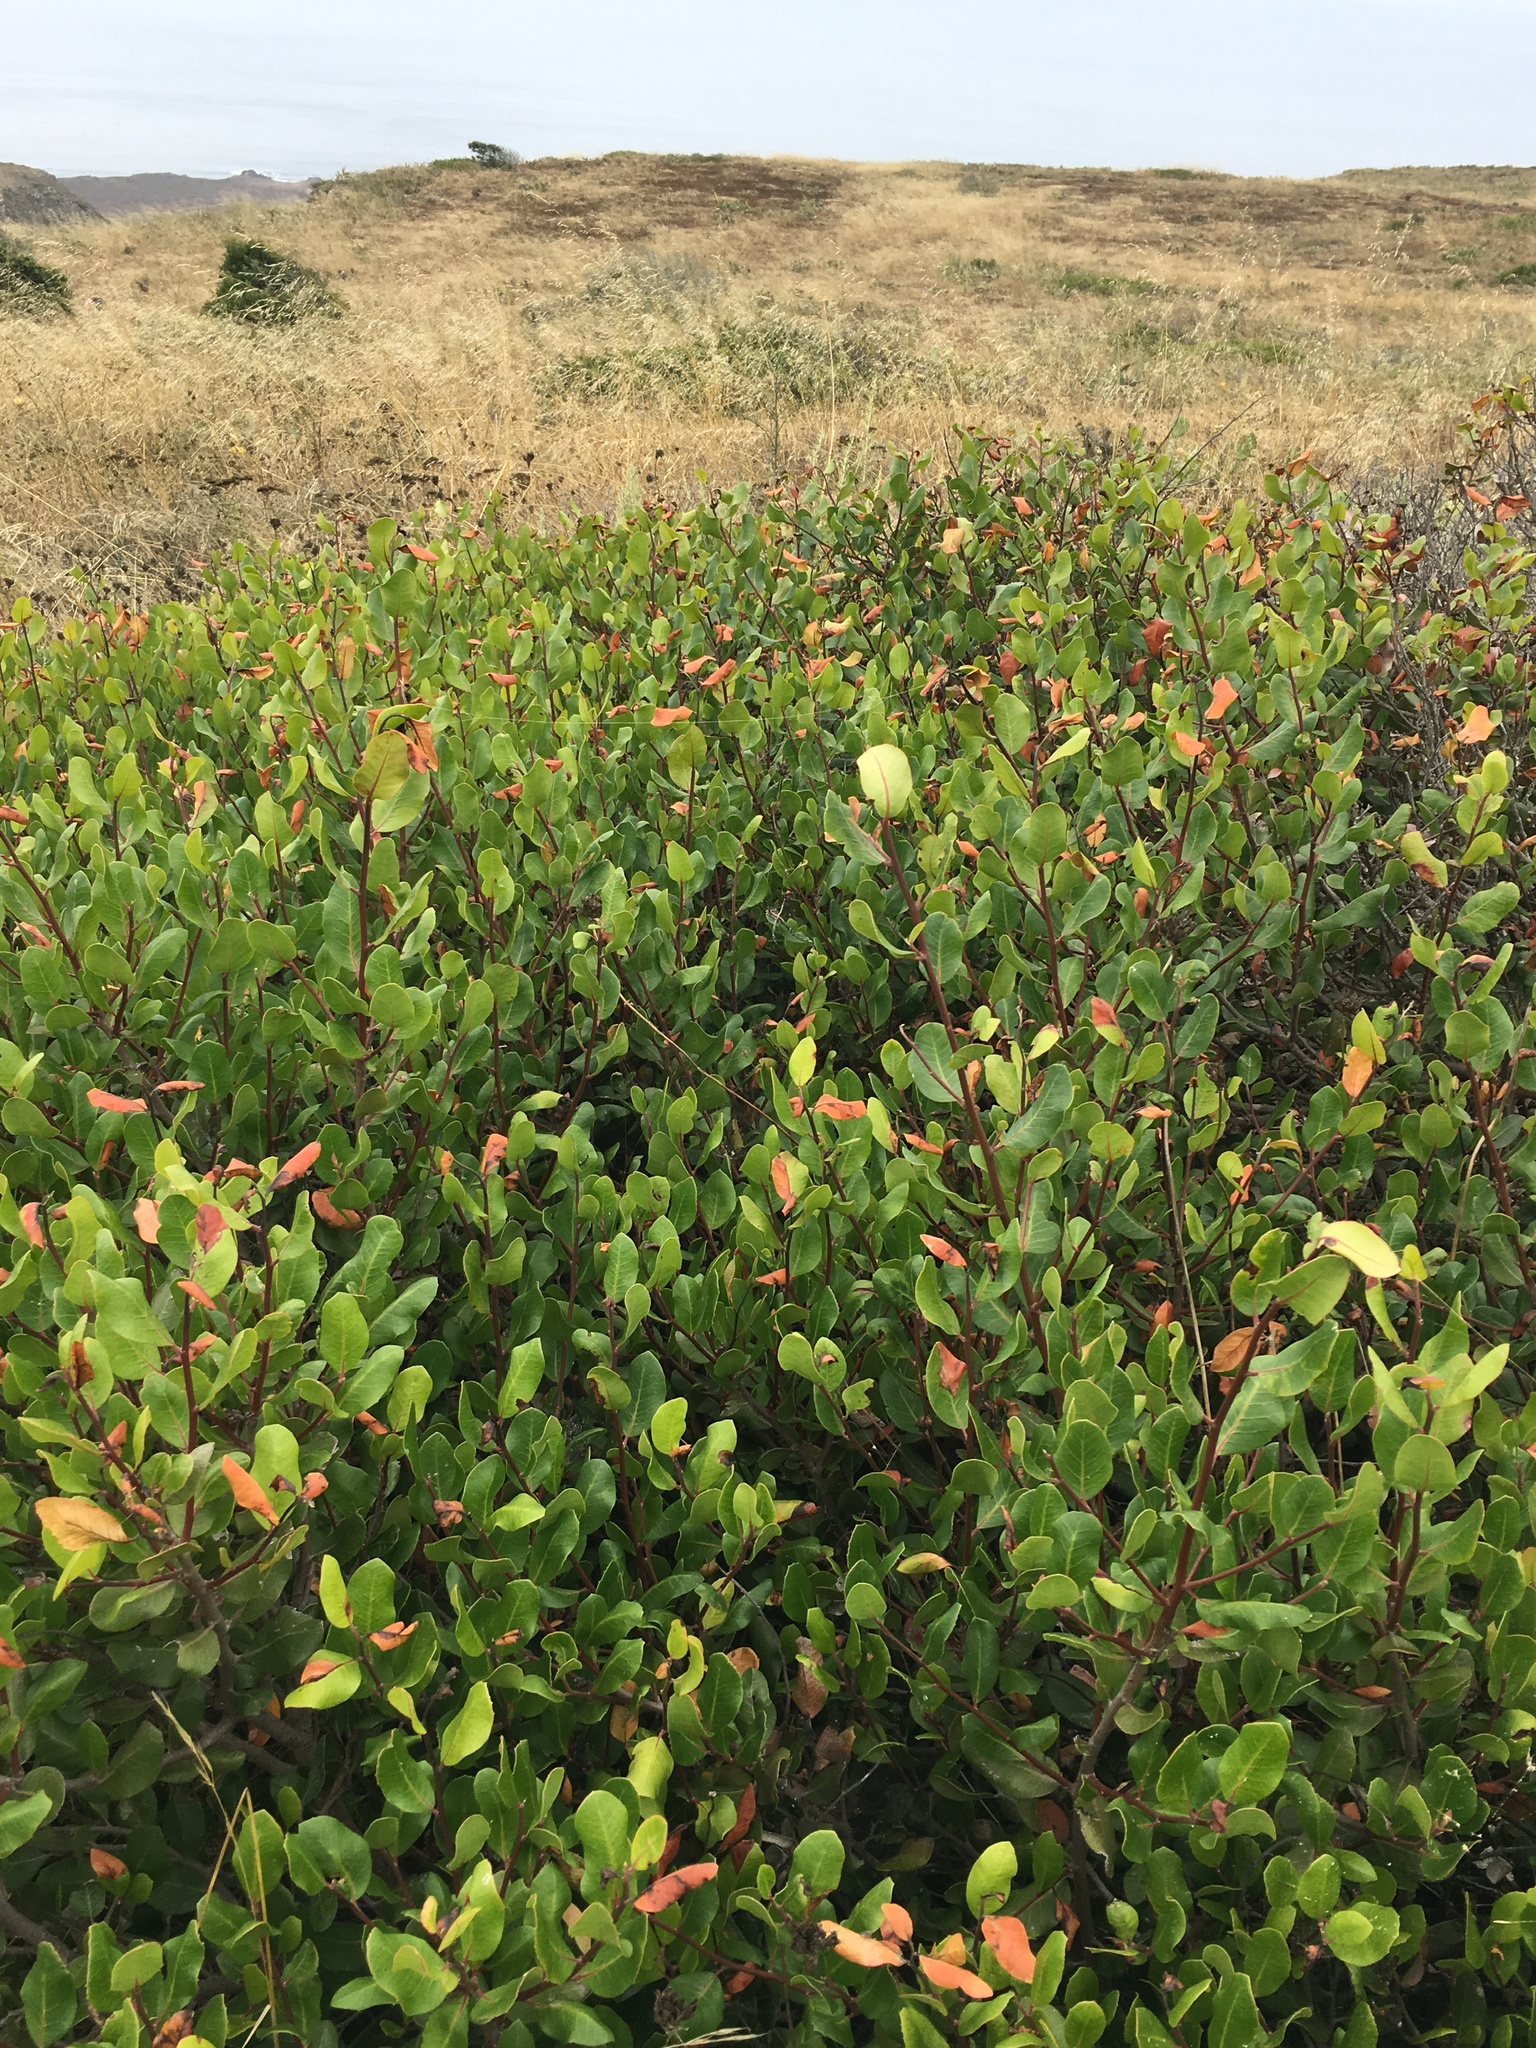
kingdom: Plantae
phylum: Tracheophyta
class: Magnoliopsida
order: Sapindales
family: Anacardiaceae
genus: Rhus
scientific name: Rhus integrifolia
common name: Lemonade sumac
